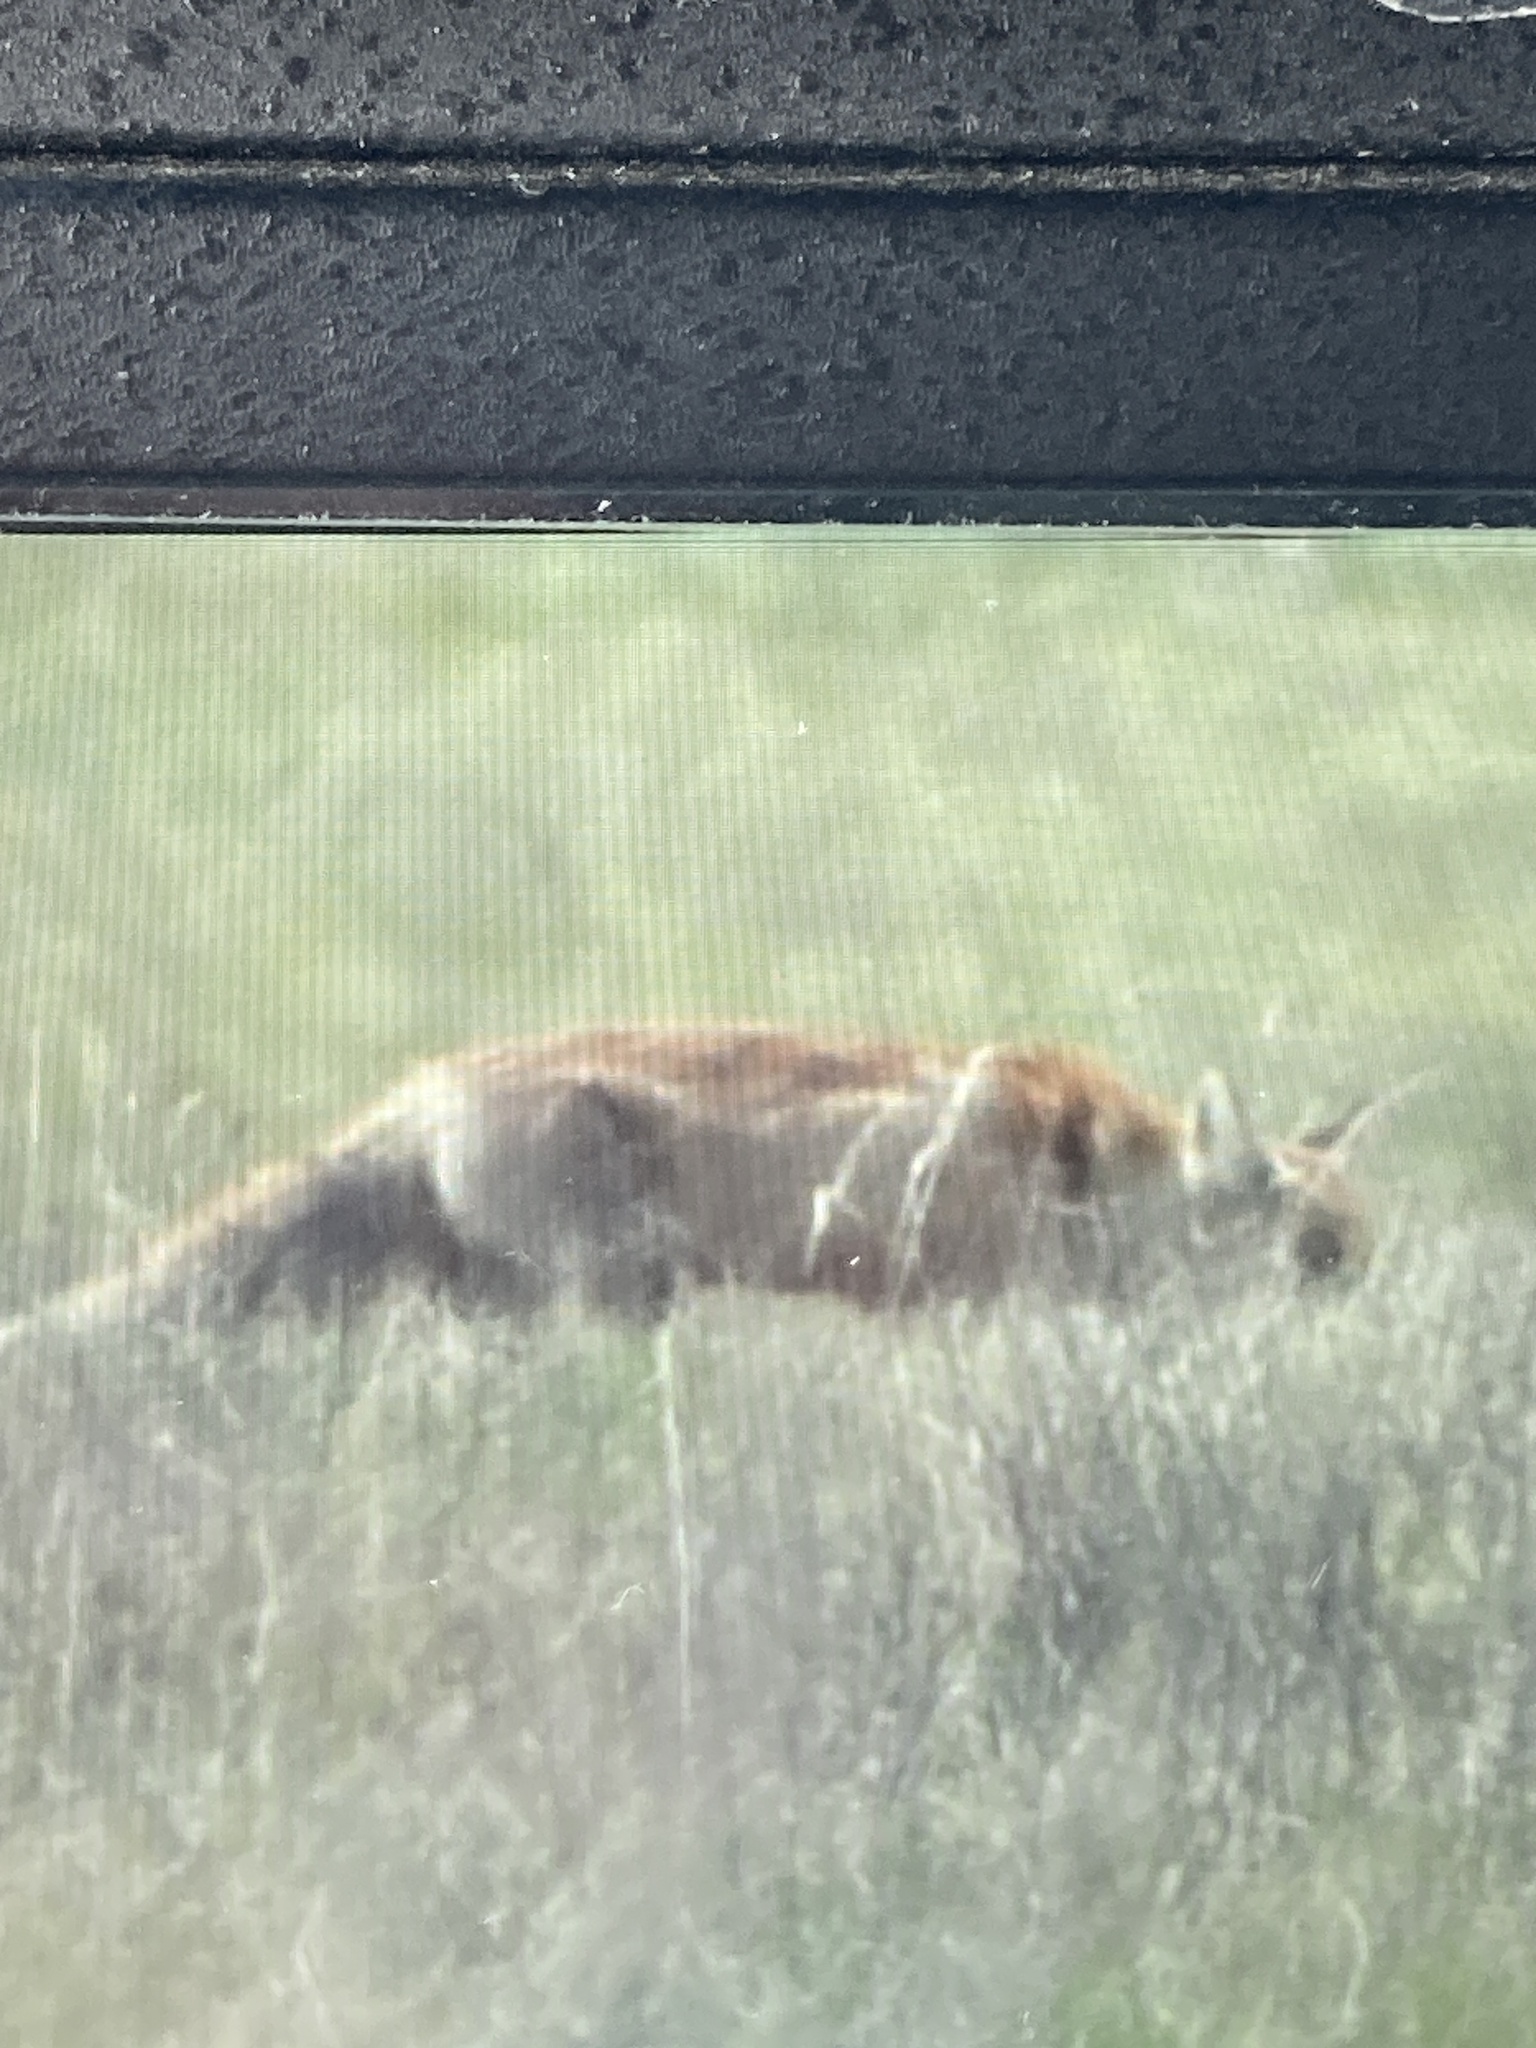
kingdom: Animalia
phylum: Chordata
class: Mammalia
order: Carnivora
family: Canidae
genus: Vulpes
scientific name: Vulpes vulpes
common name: Red fox
